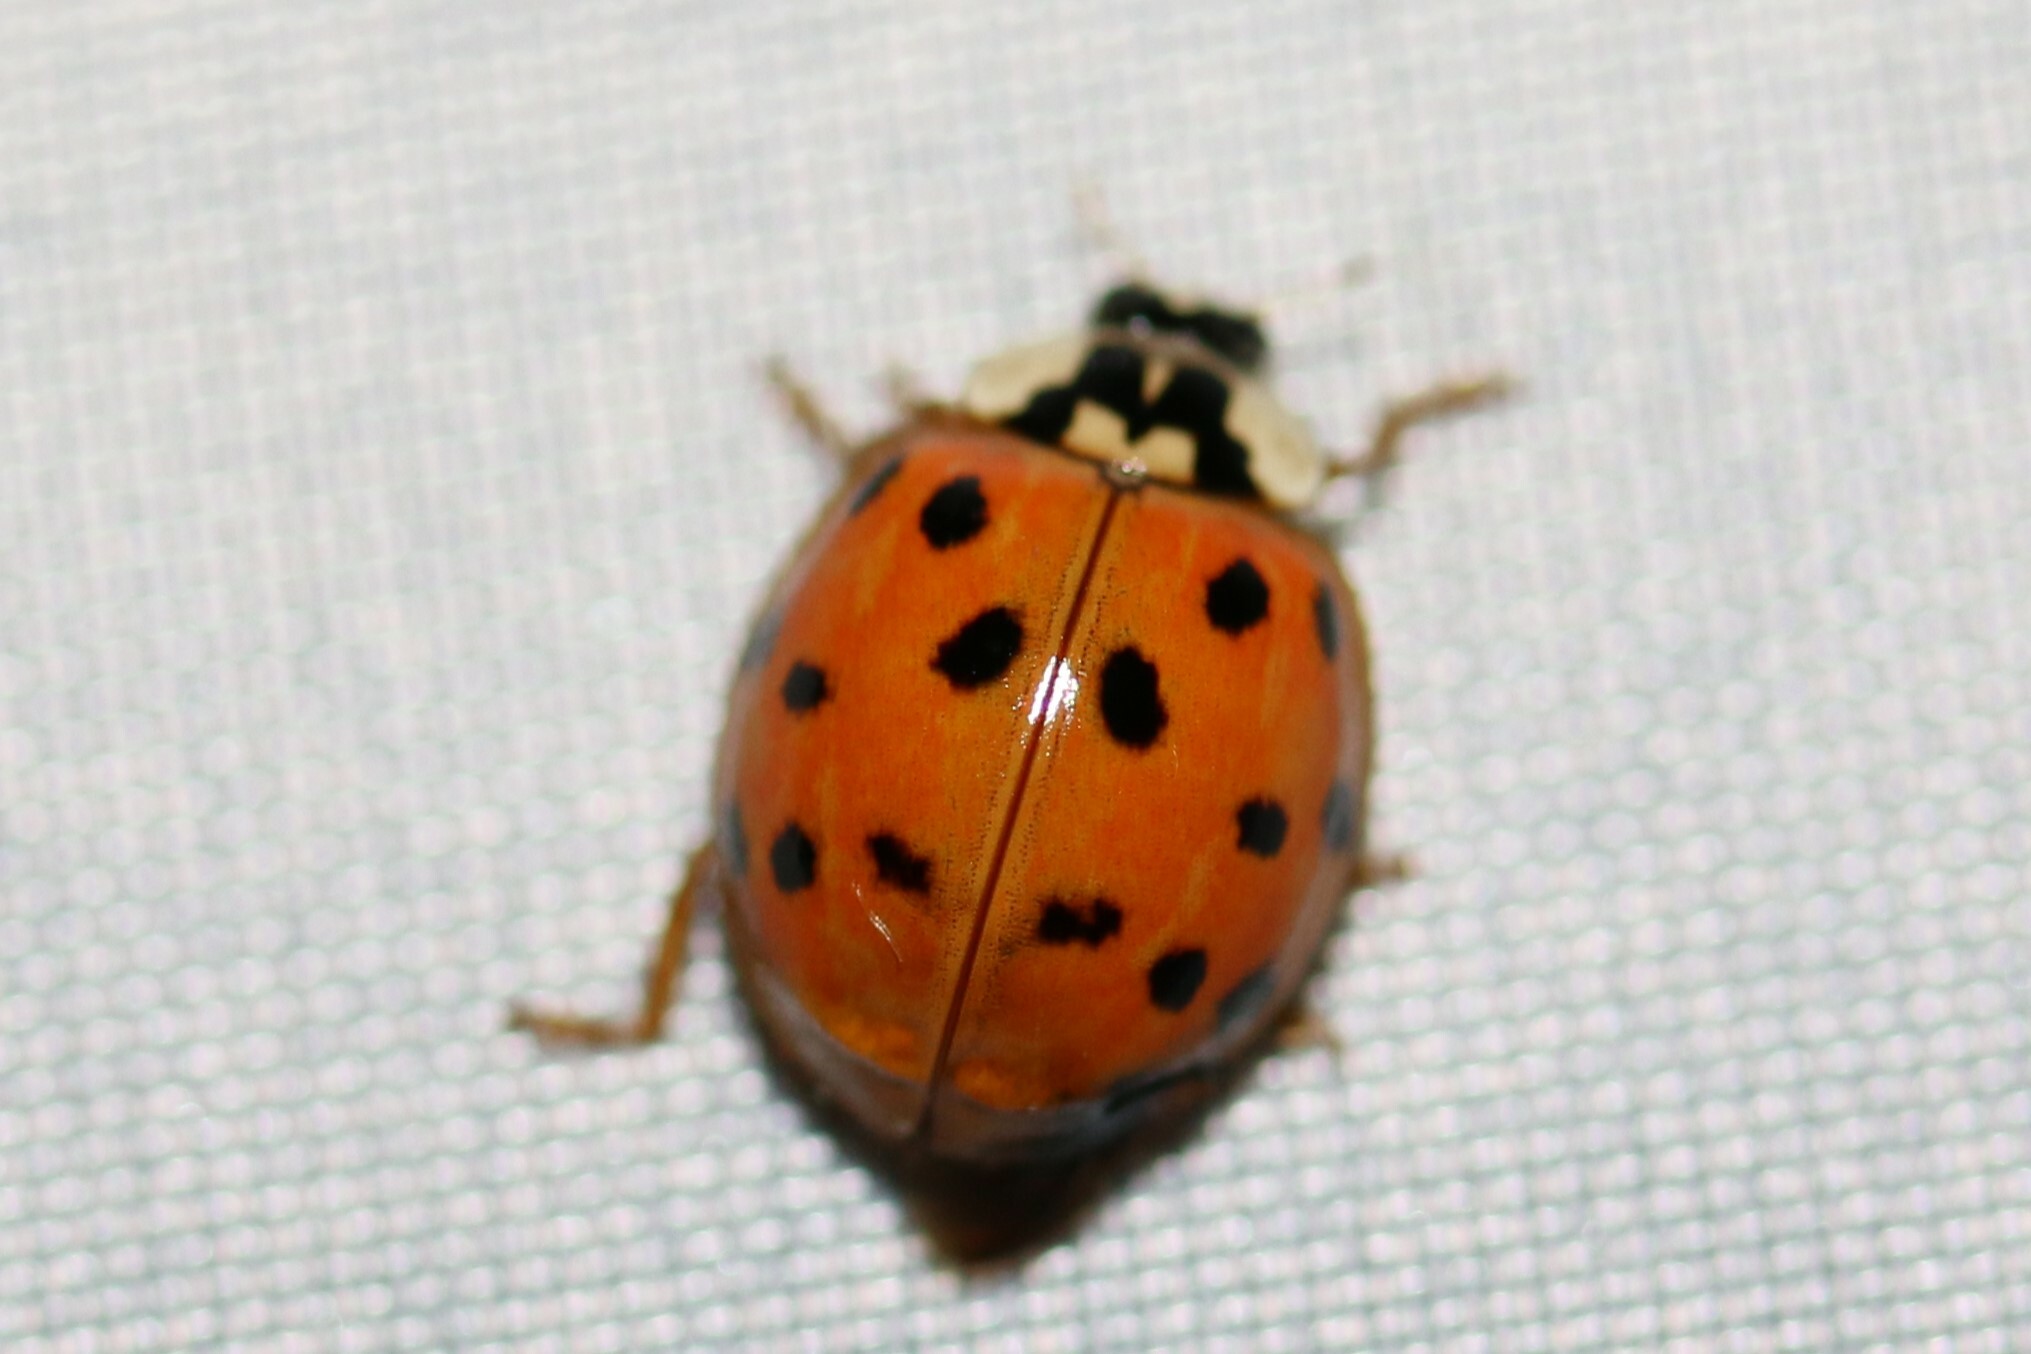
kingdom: Animalia
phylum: Arthropoda
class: Insecta
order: Coleoptera
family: Coccinellidae
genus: Harmonia
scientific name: Harmonia axyridis
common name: Harlequin ladybird
